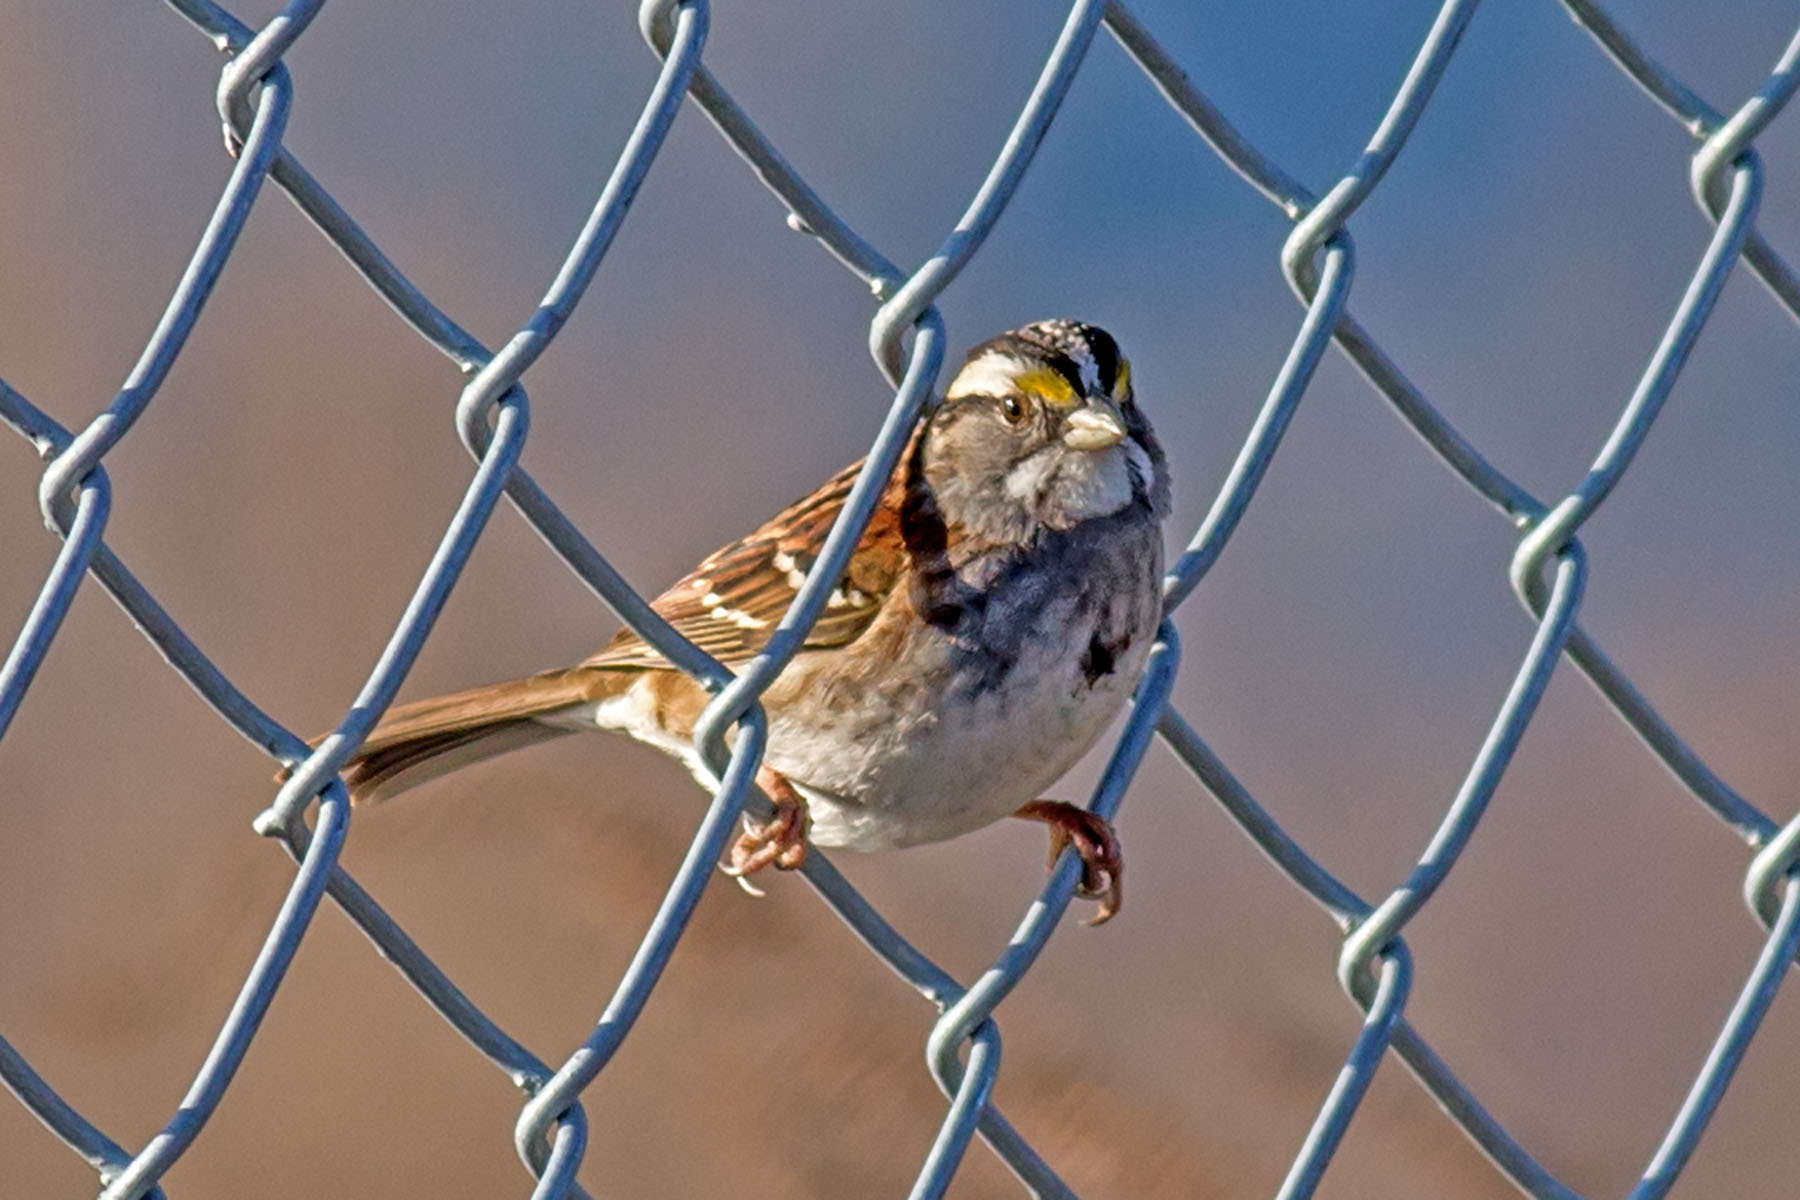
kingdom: Animalia
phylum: Chordata
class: Aves
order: Passeriformes
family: Passerellidae
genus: Zonotrichia
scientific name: Zonotrichia albicollis
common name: White-throated sparrow
